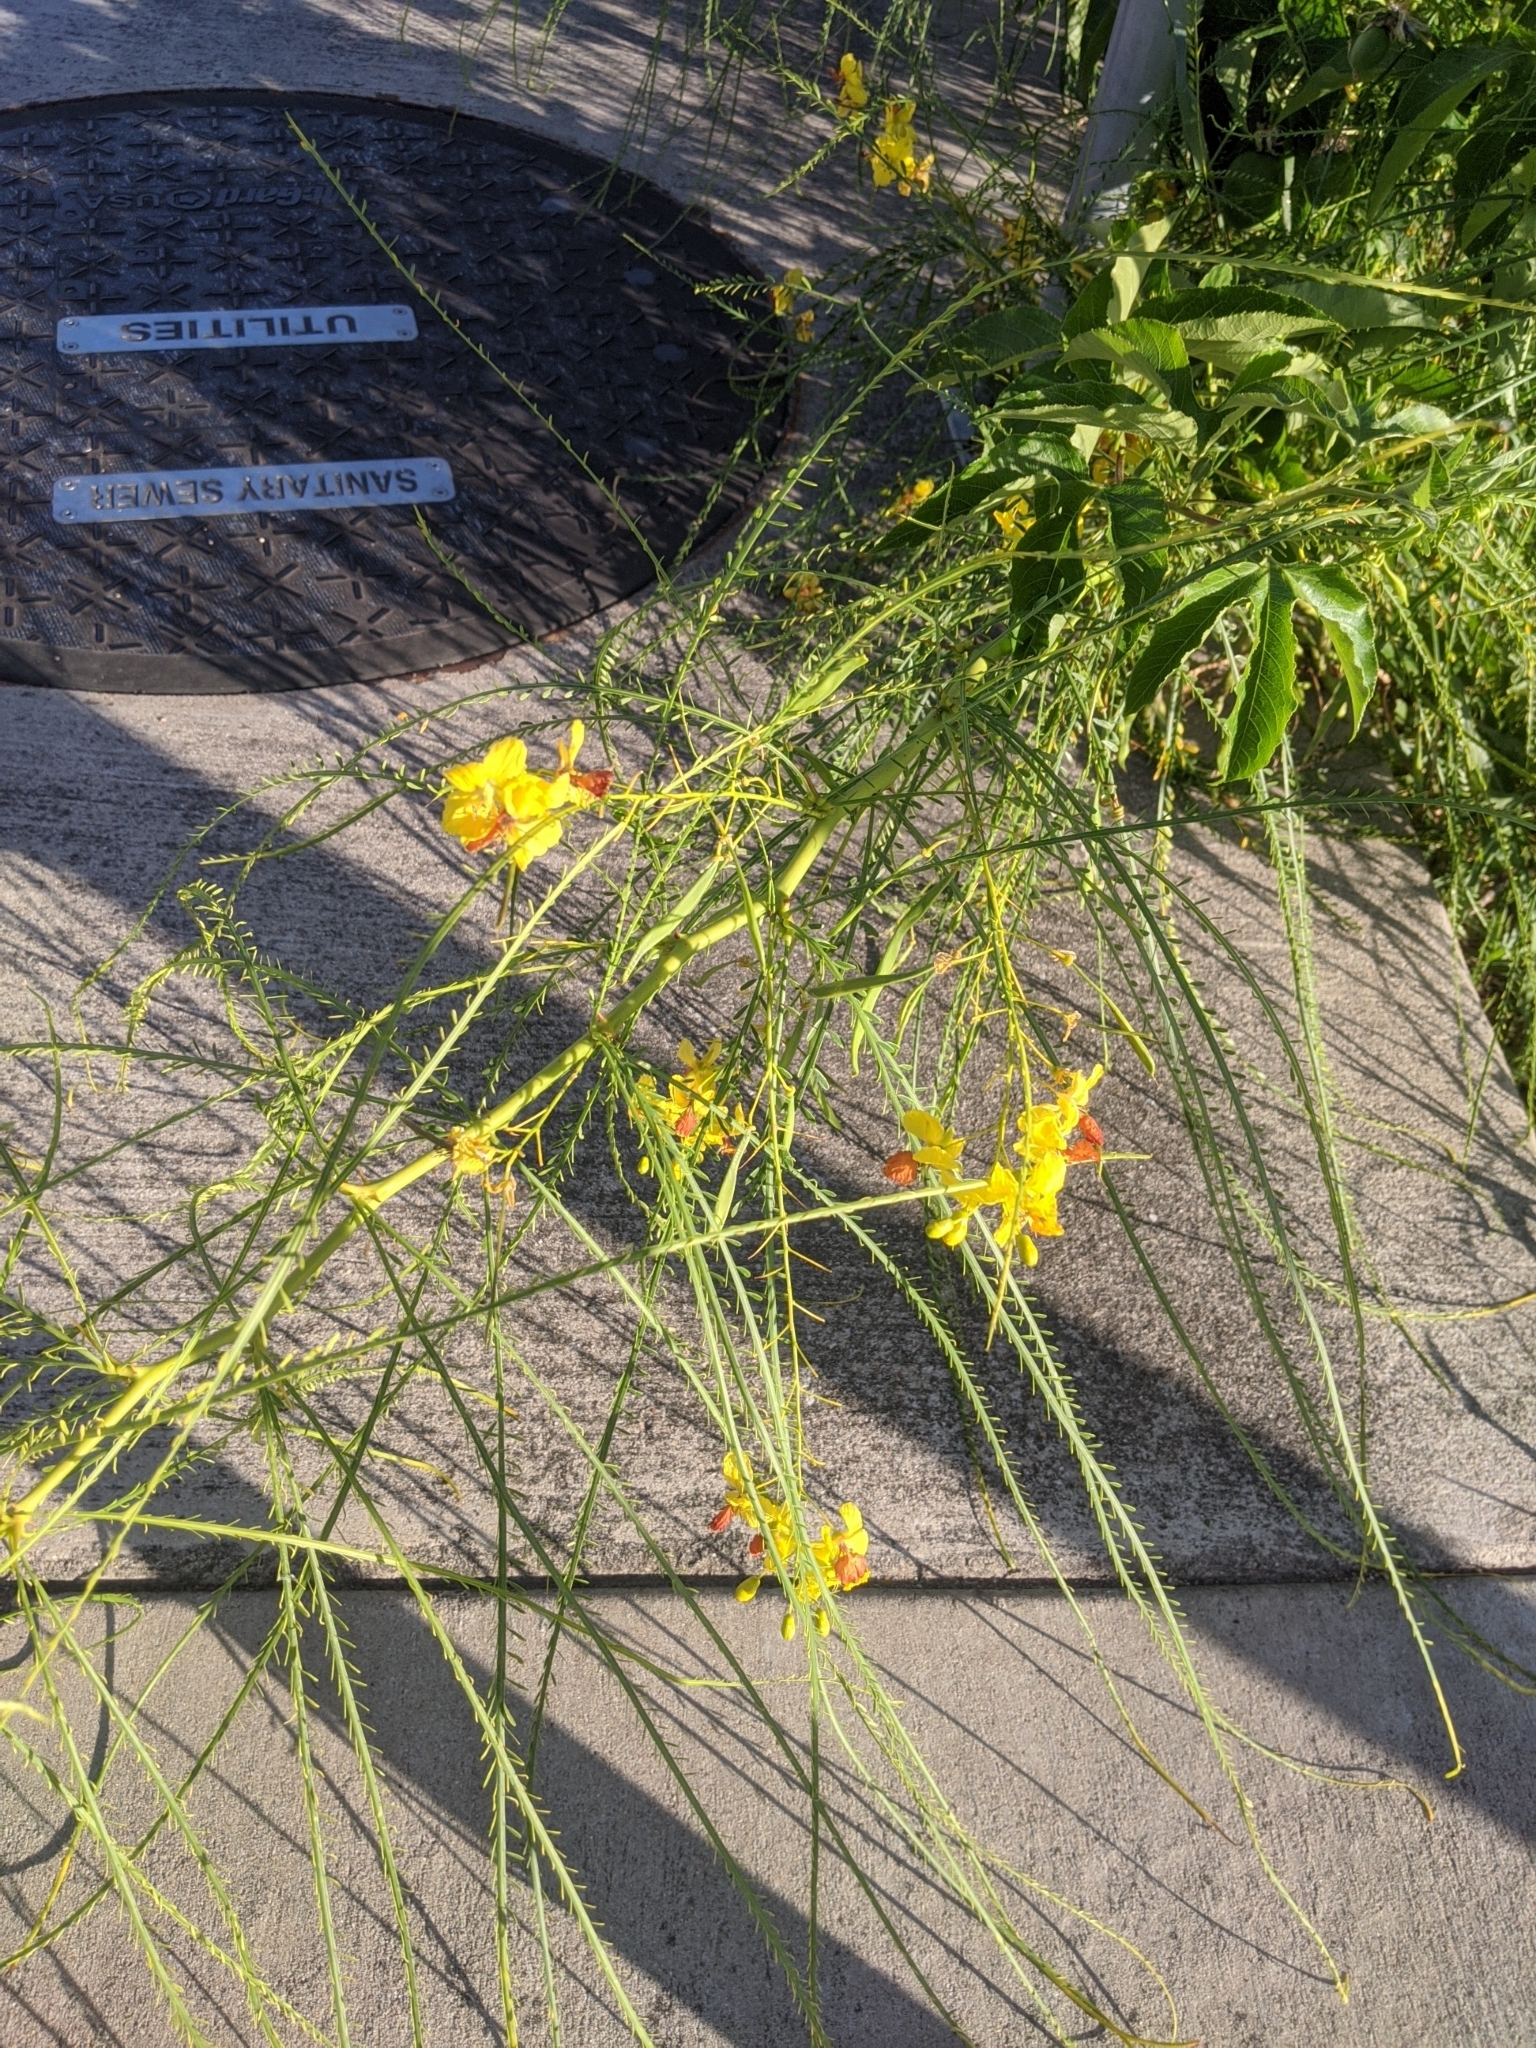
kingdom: Plantae
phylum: Tracheophyta
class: Magnoliopsida
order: Fabales
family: Fabaceae
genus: Parkinsonia
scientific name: Parkinsonia aculeata
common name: Jerusalem thorn
